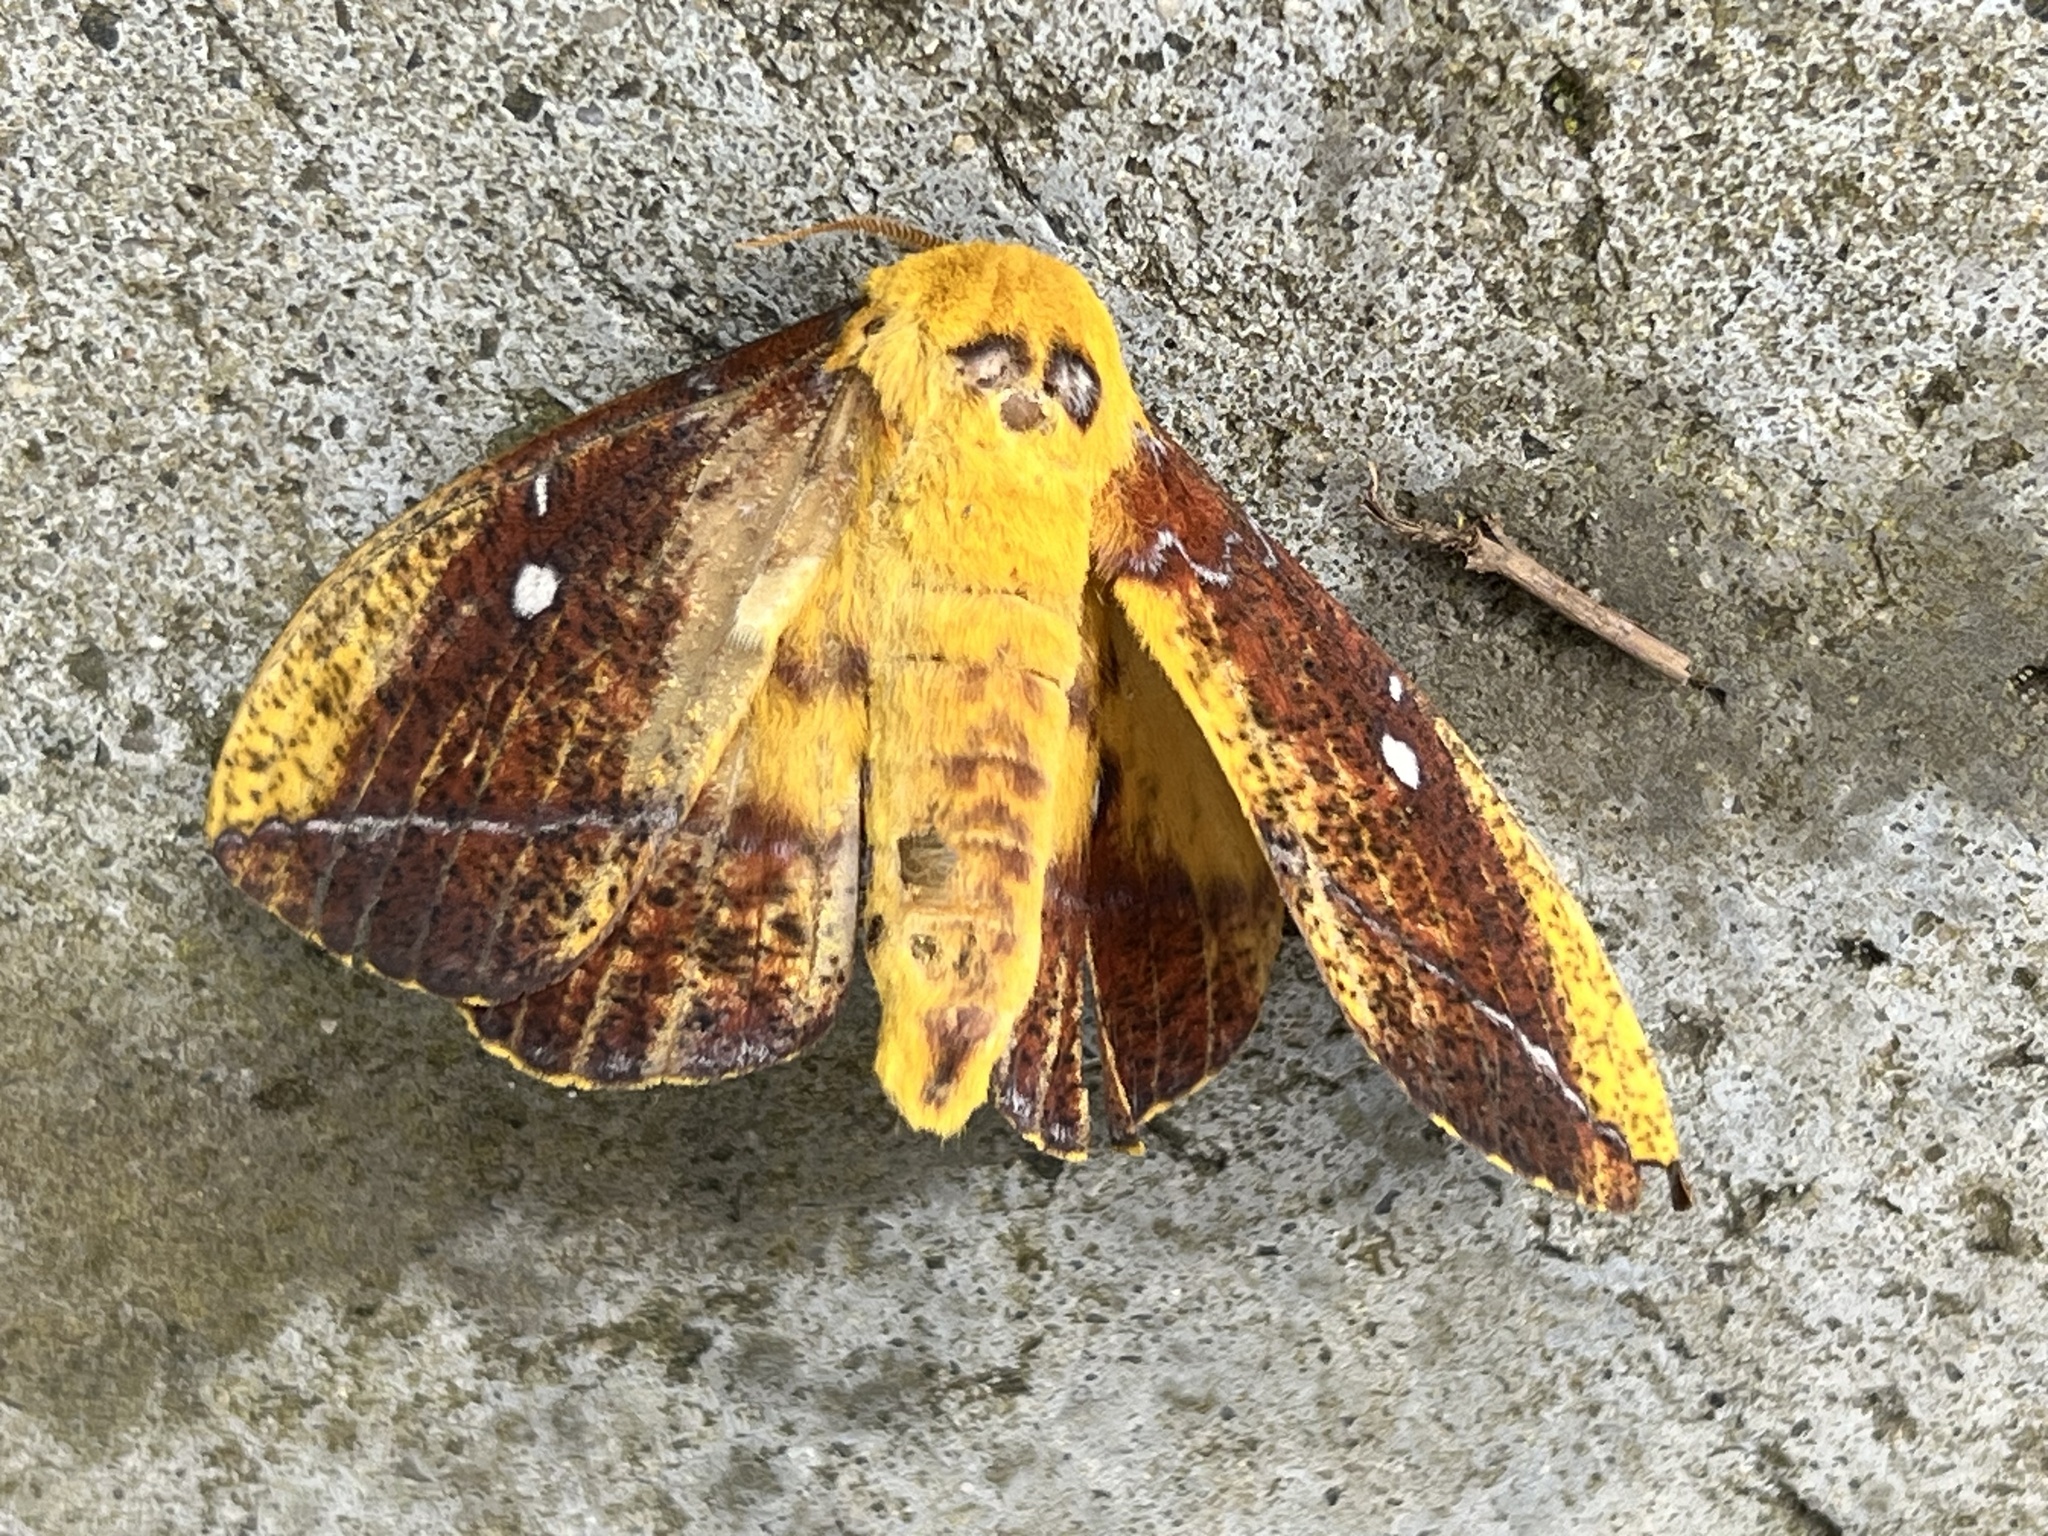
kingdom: Animalia
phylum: Arthropoda
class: Insecta
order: Lepidoptera
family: Saturniidae
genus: Eacles
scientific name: Eacles ducalis
